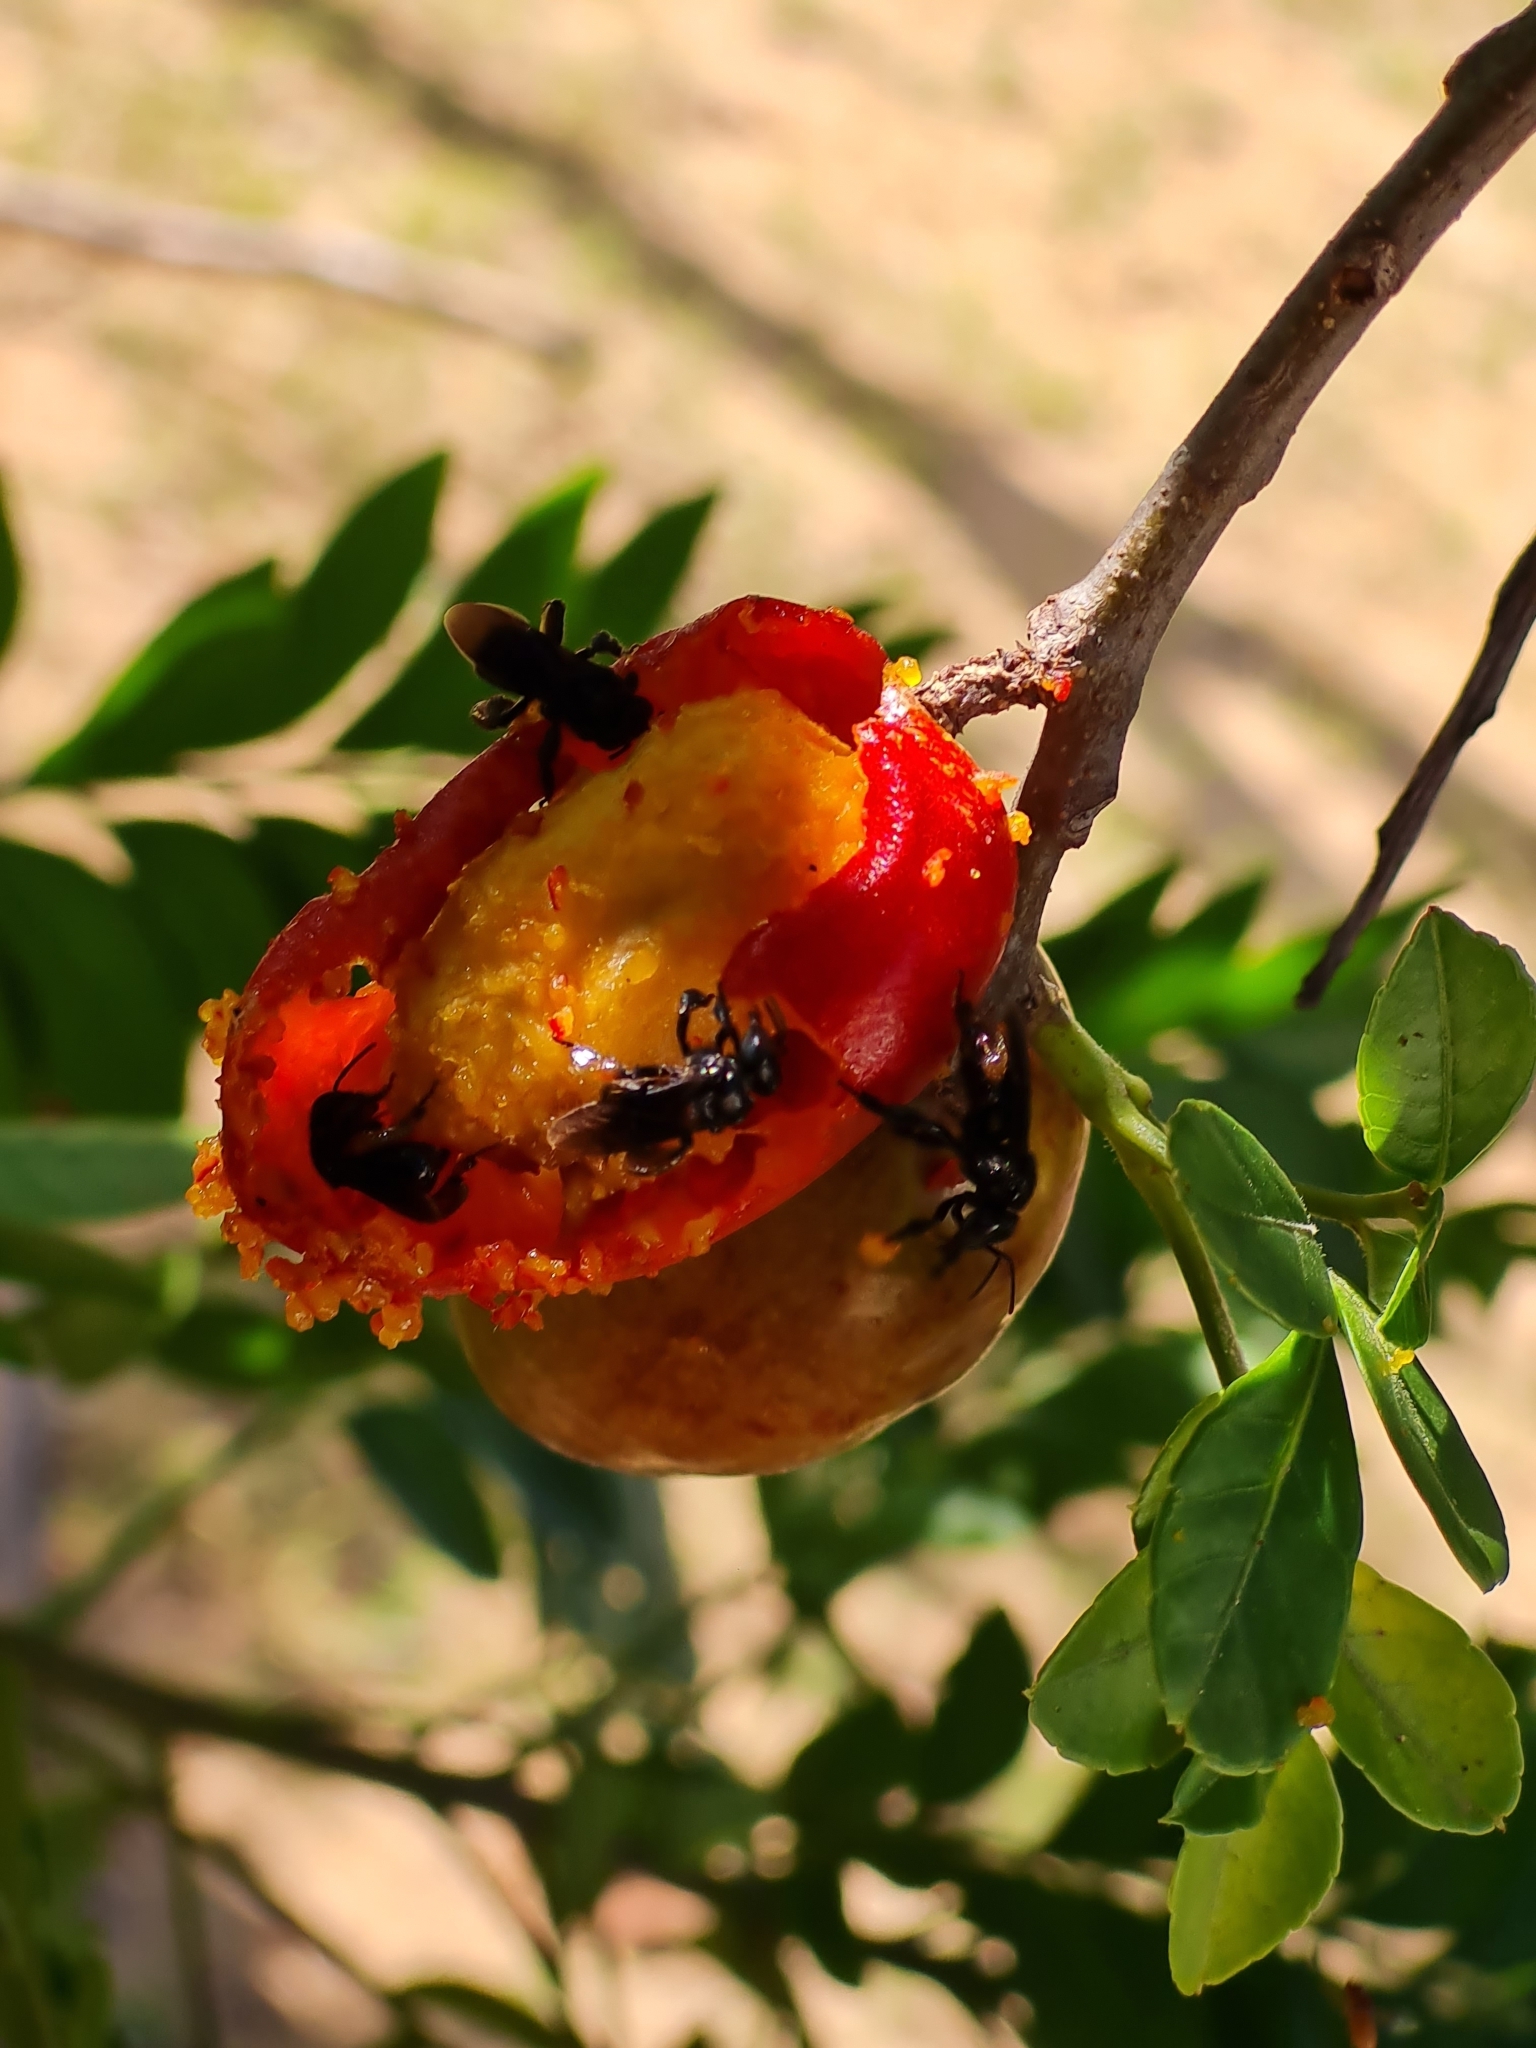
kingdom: Animalia
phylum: Arthropoda
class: Insecta
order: Hymenoptera
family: Apidae
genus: Trigona
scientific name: Trigona spinipes
